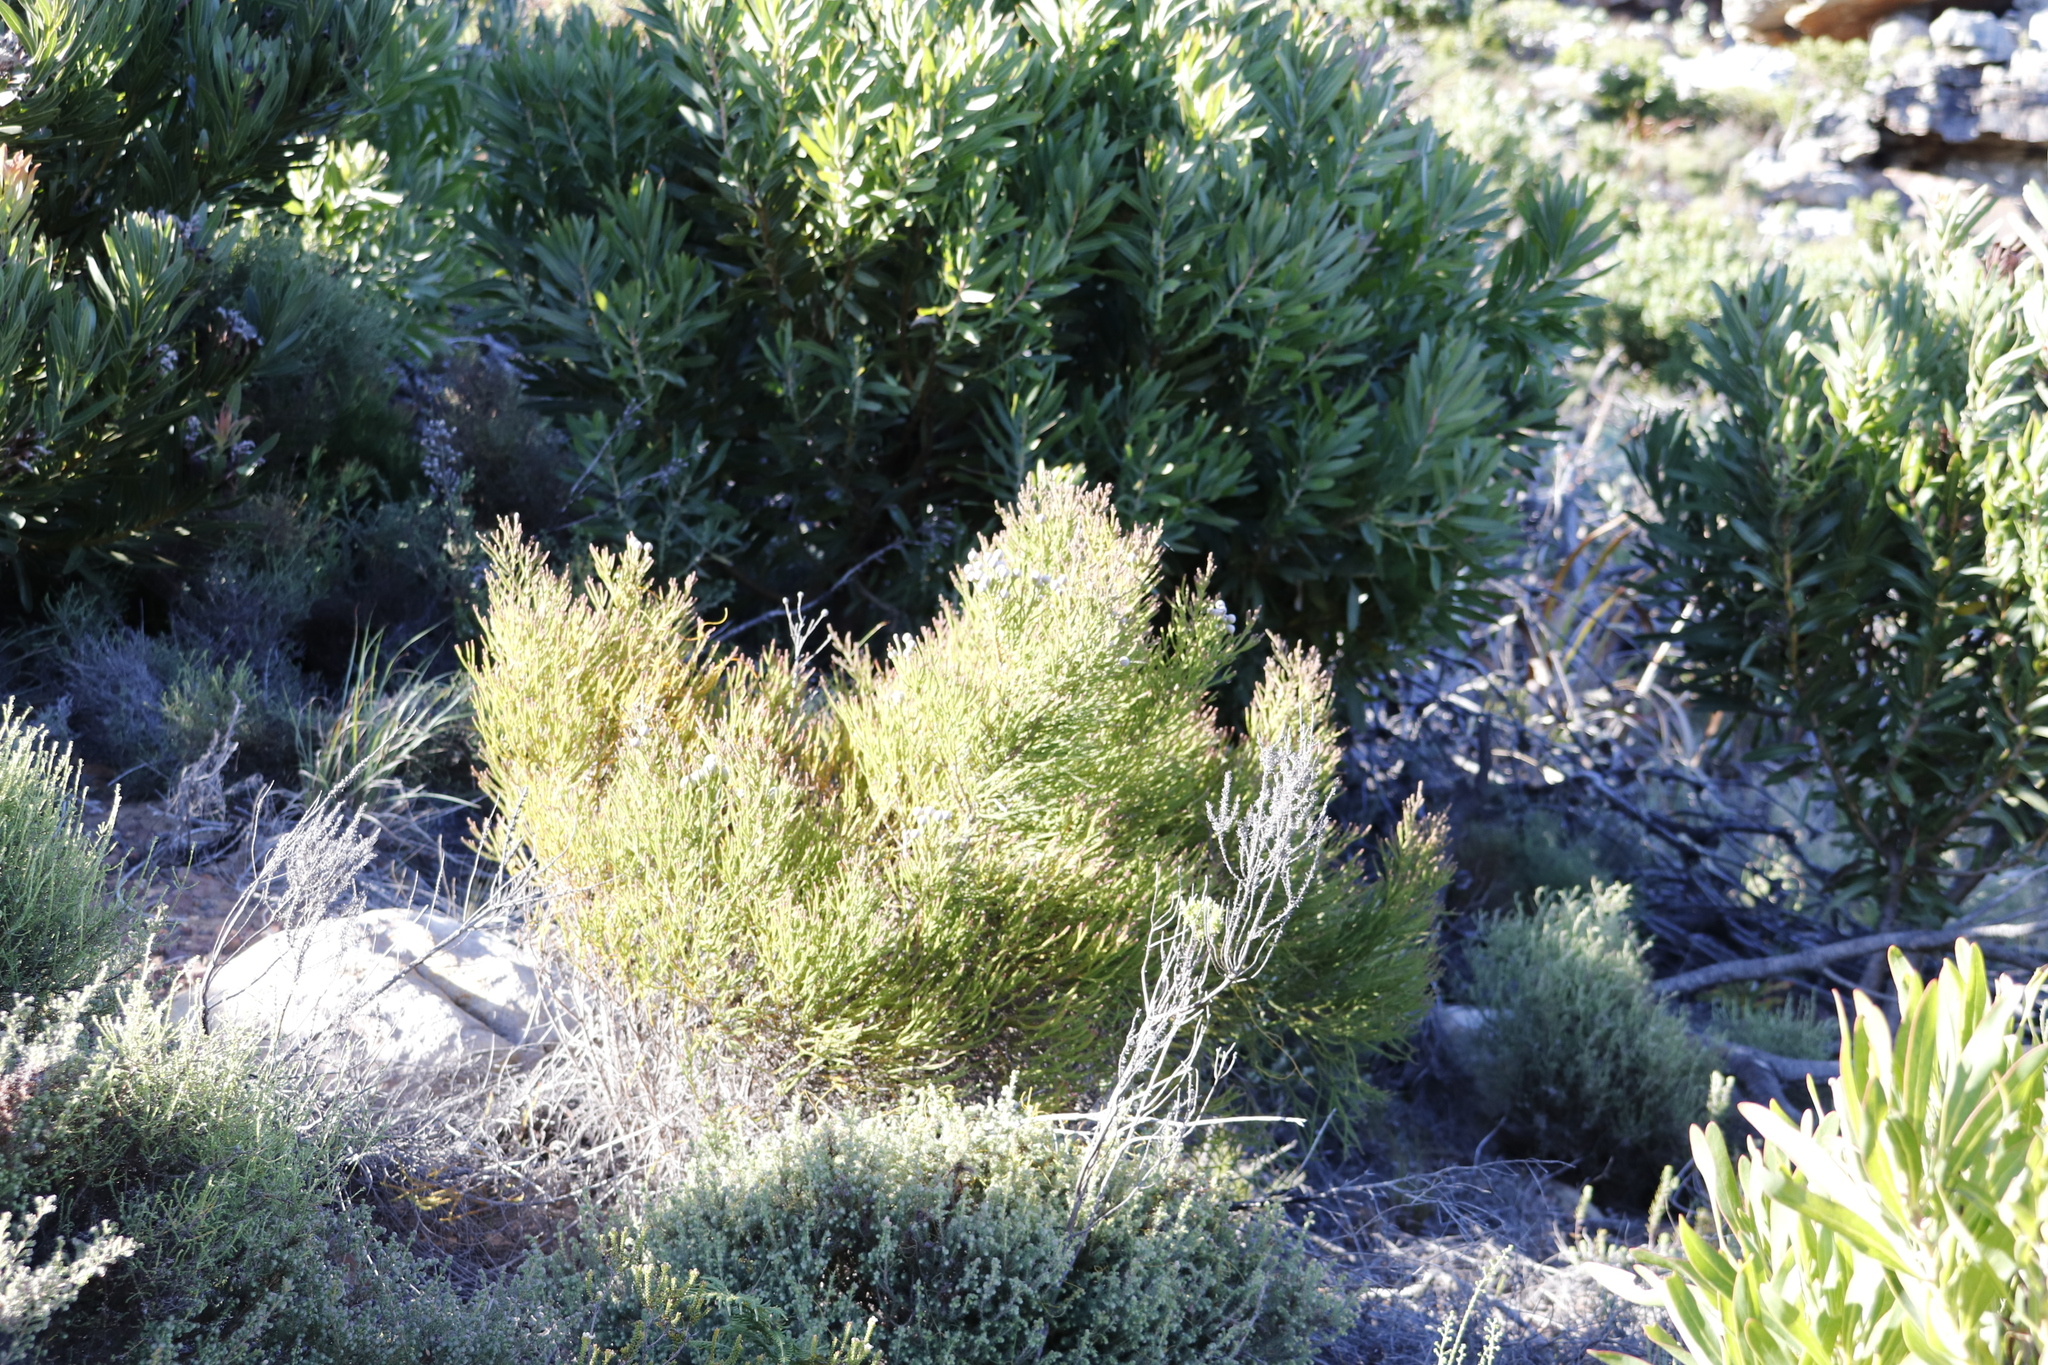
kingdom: Plantae
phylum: Tracheophyta
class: Magnoliopsida
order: Bruniales
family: Bruniaceae
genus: Brunia
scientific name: Brunia noduliflora
